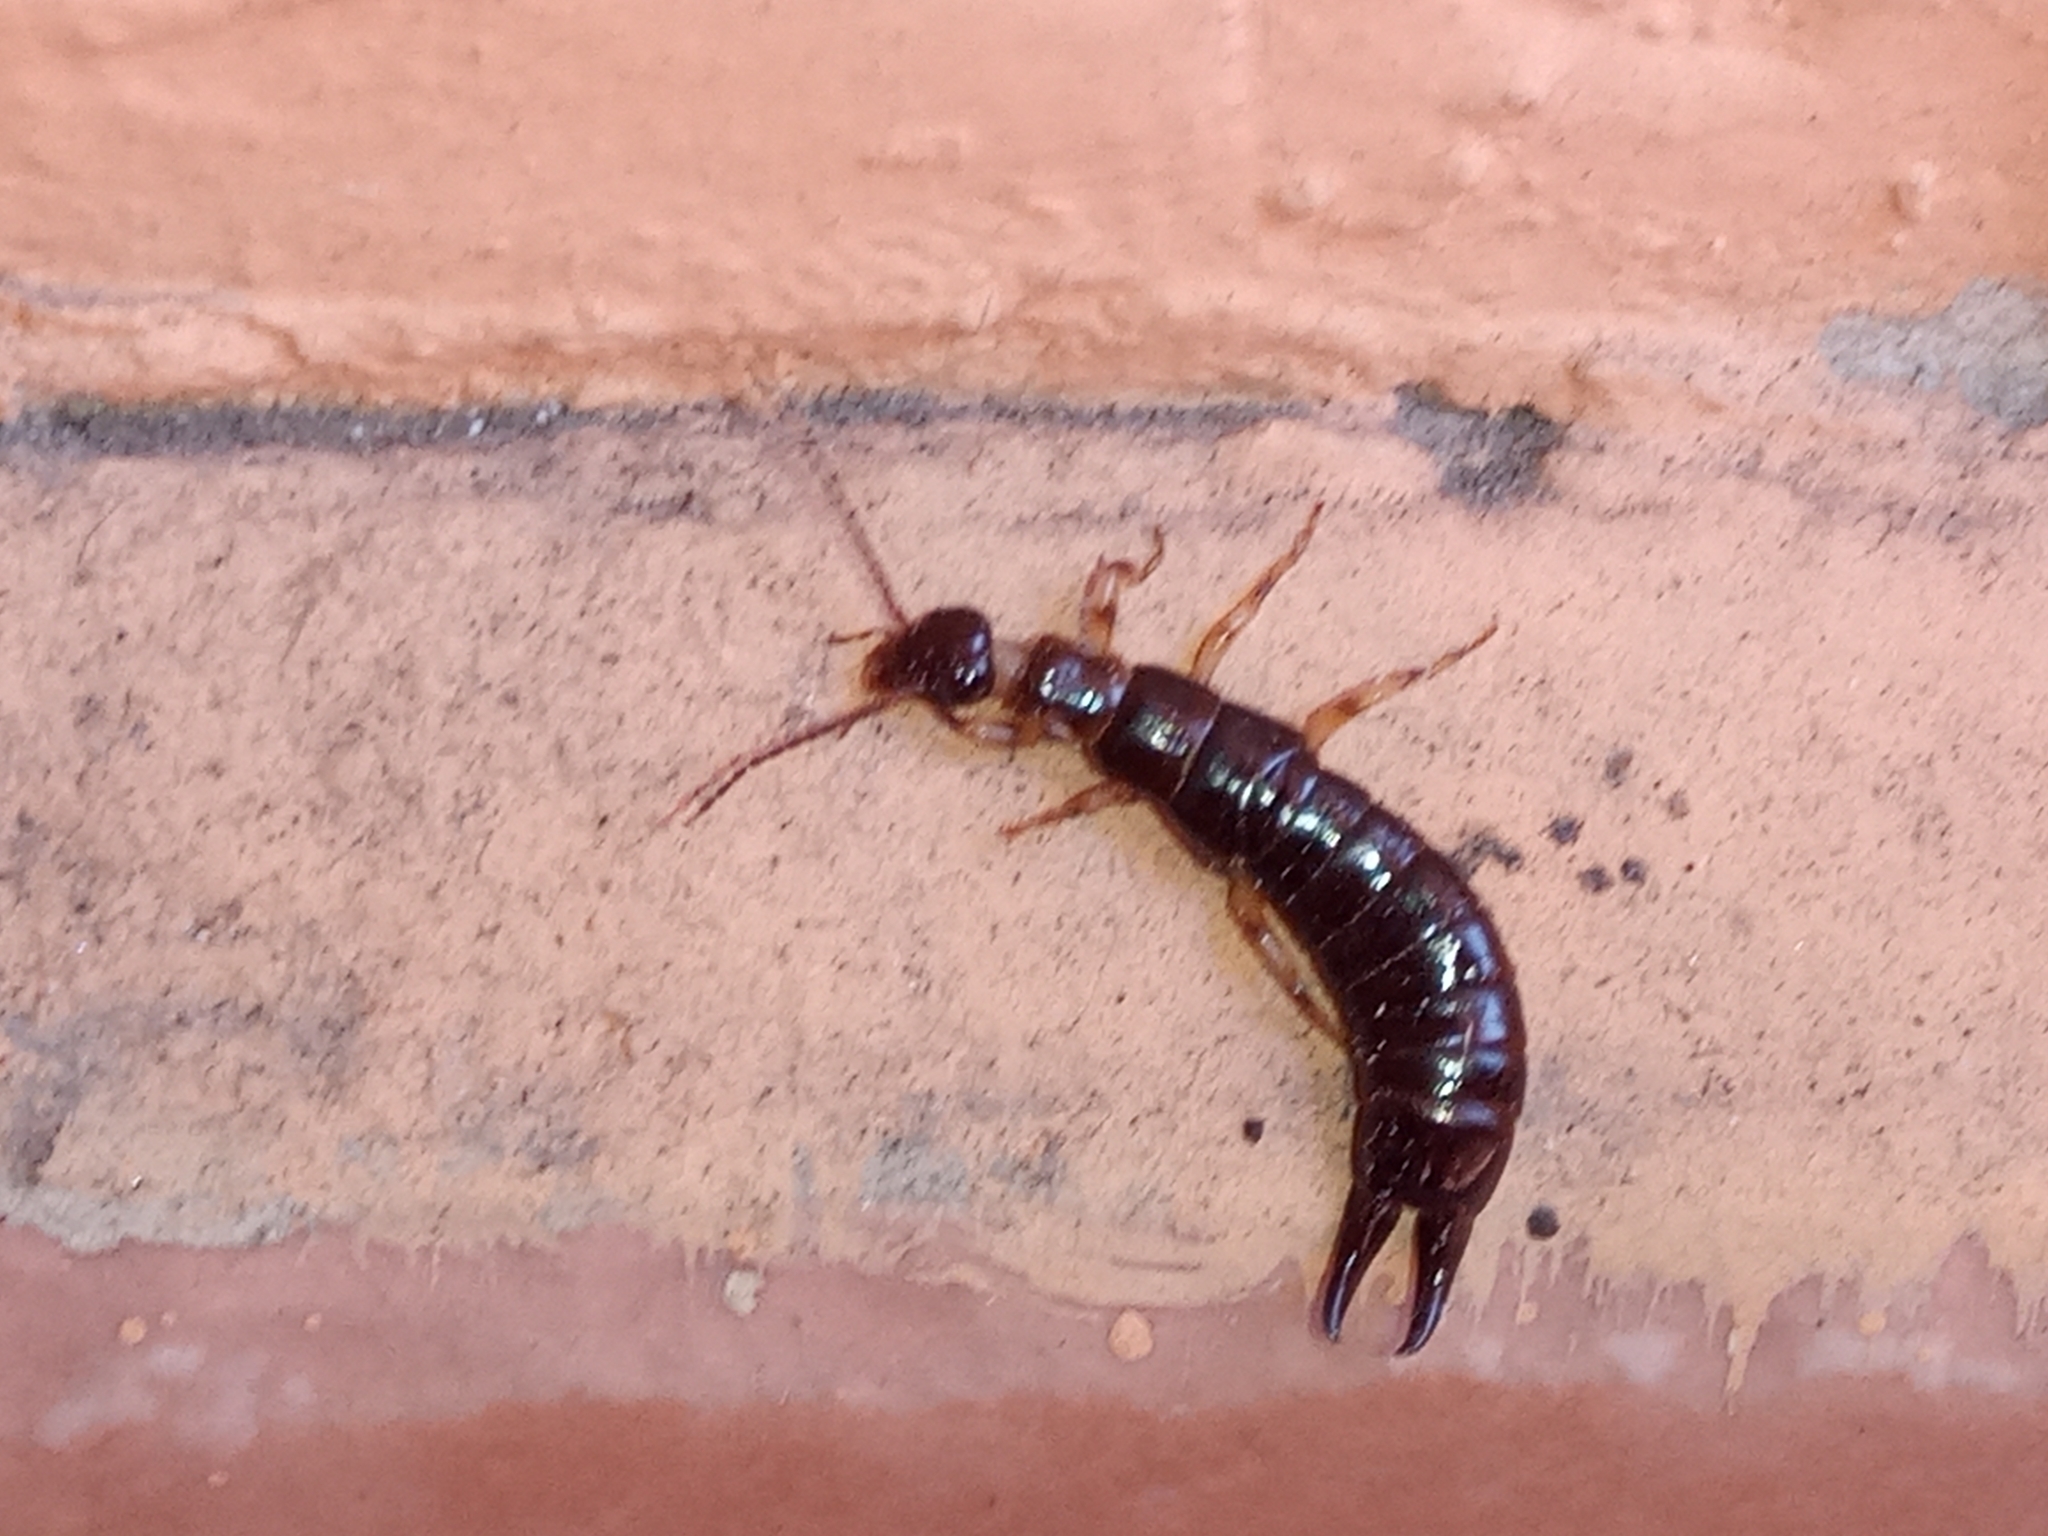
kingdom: Animalia
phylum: Arthropoda
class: Insecta
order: Dermaptera
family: Anisolabididae
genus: Euborellia
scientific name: Euborellia annulipes
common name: Ringlegged earwig
